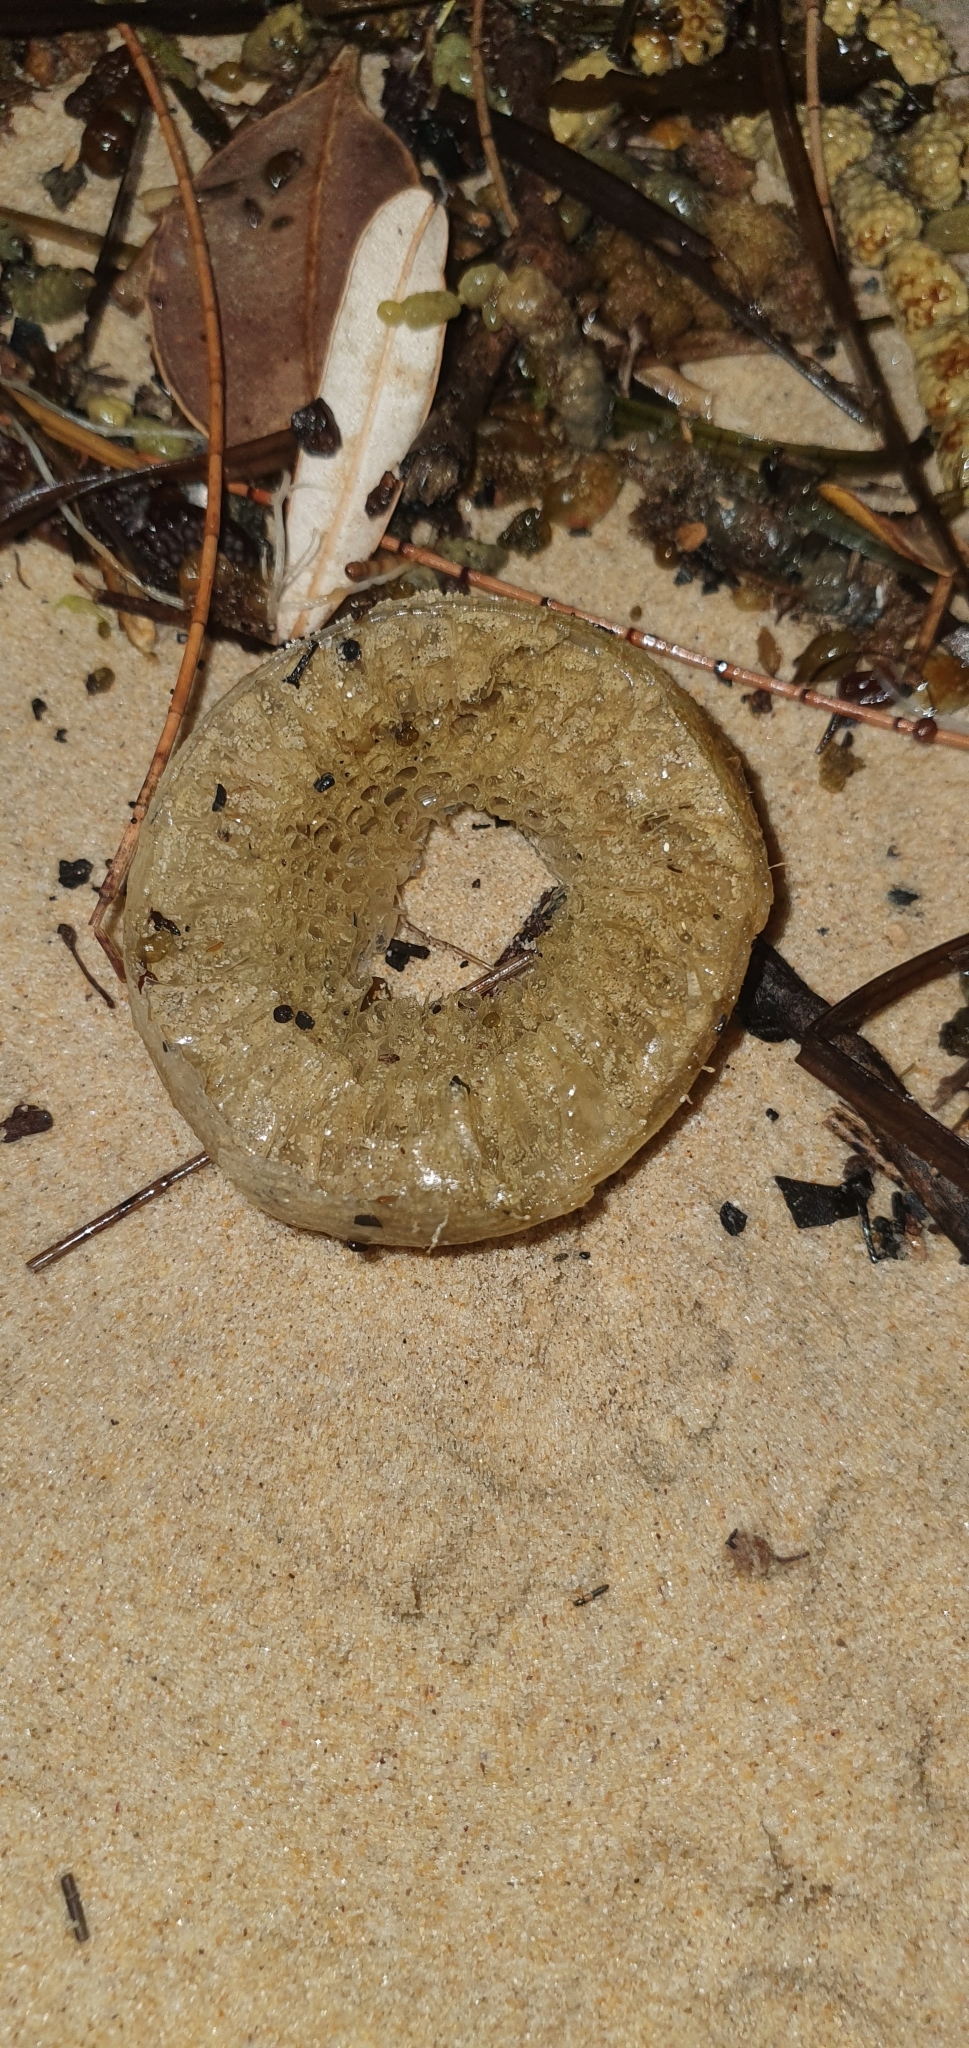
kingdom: Animalia
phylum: Mollusca
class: Gastropoda
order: Littorinimorpha
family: Cymatiidae
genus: Cabestana
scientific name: Cabestana spengleri
